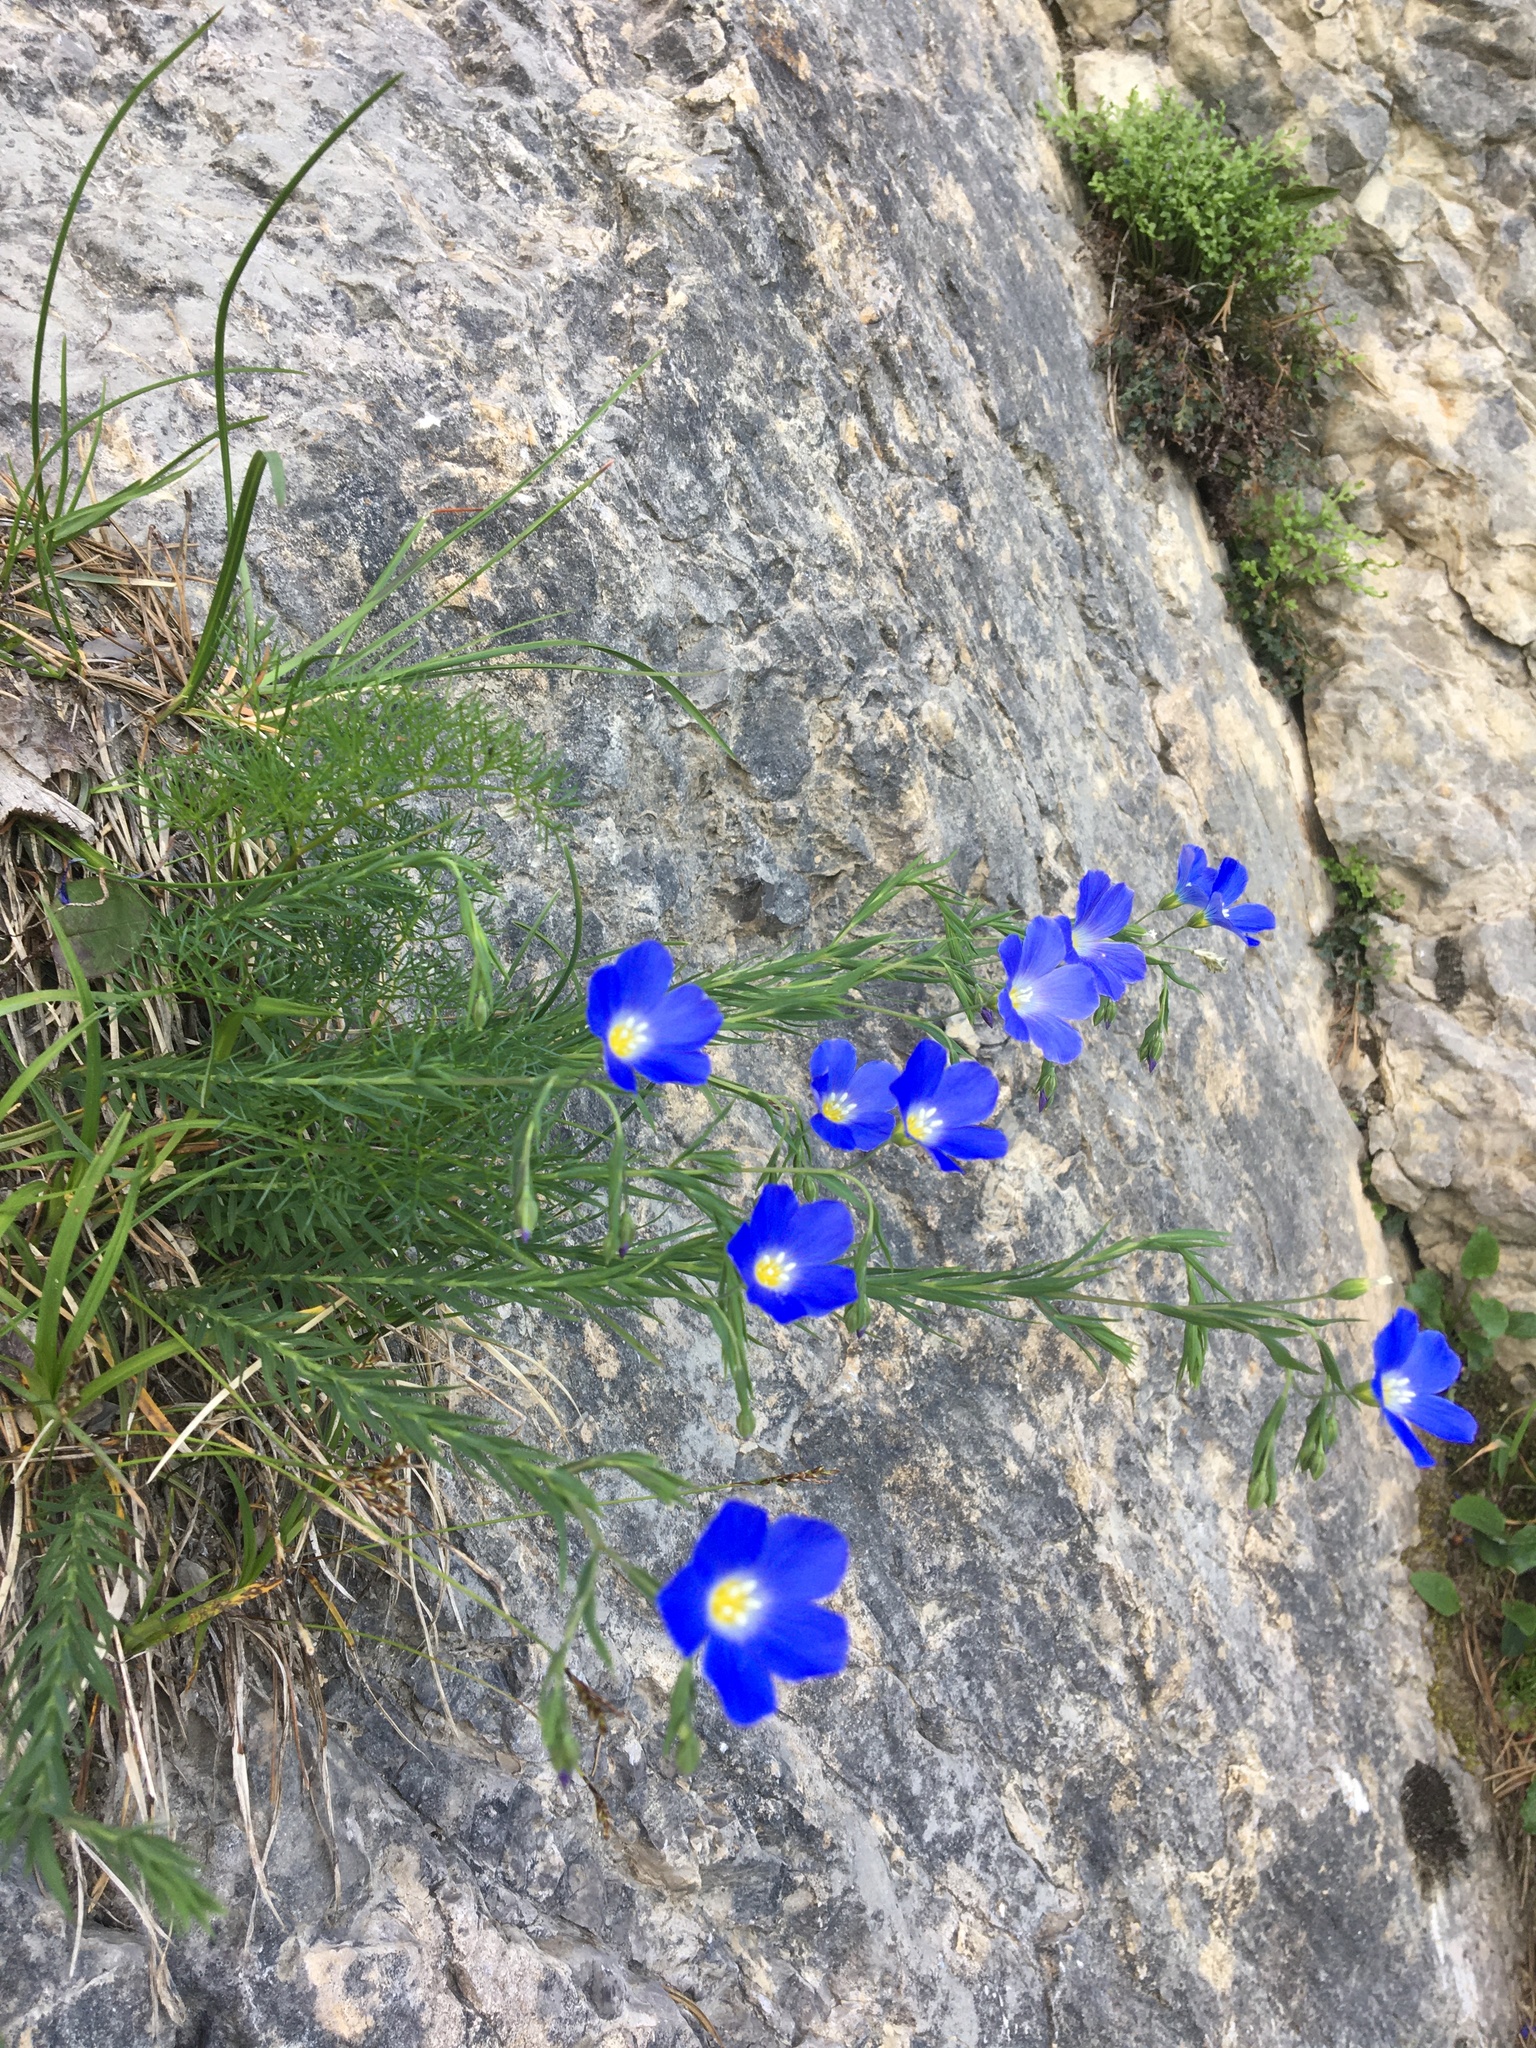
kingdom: Plantae
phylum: Tracheophyta
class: Magnoliopsida
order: Malpighiales
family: Linaceae
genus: Linum
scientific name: Linum alpinum
